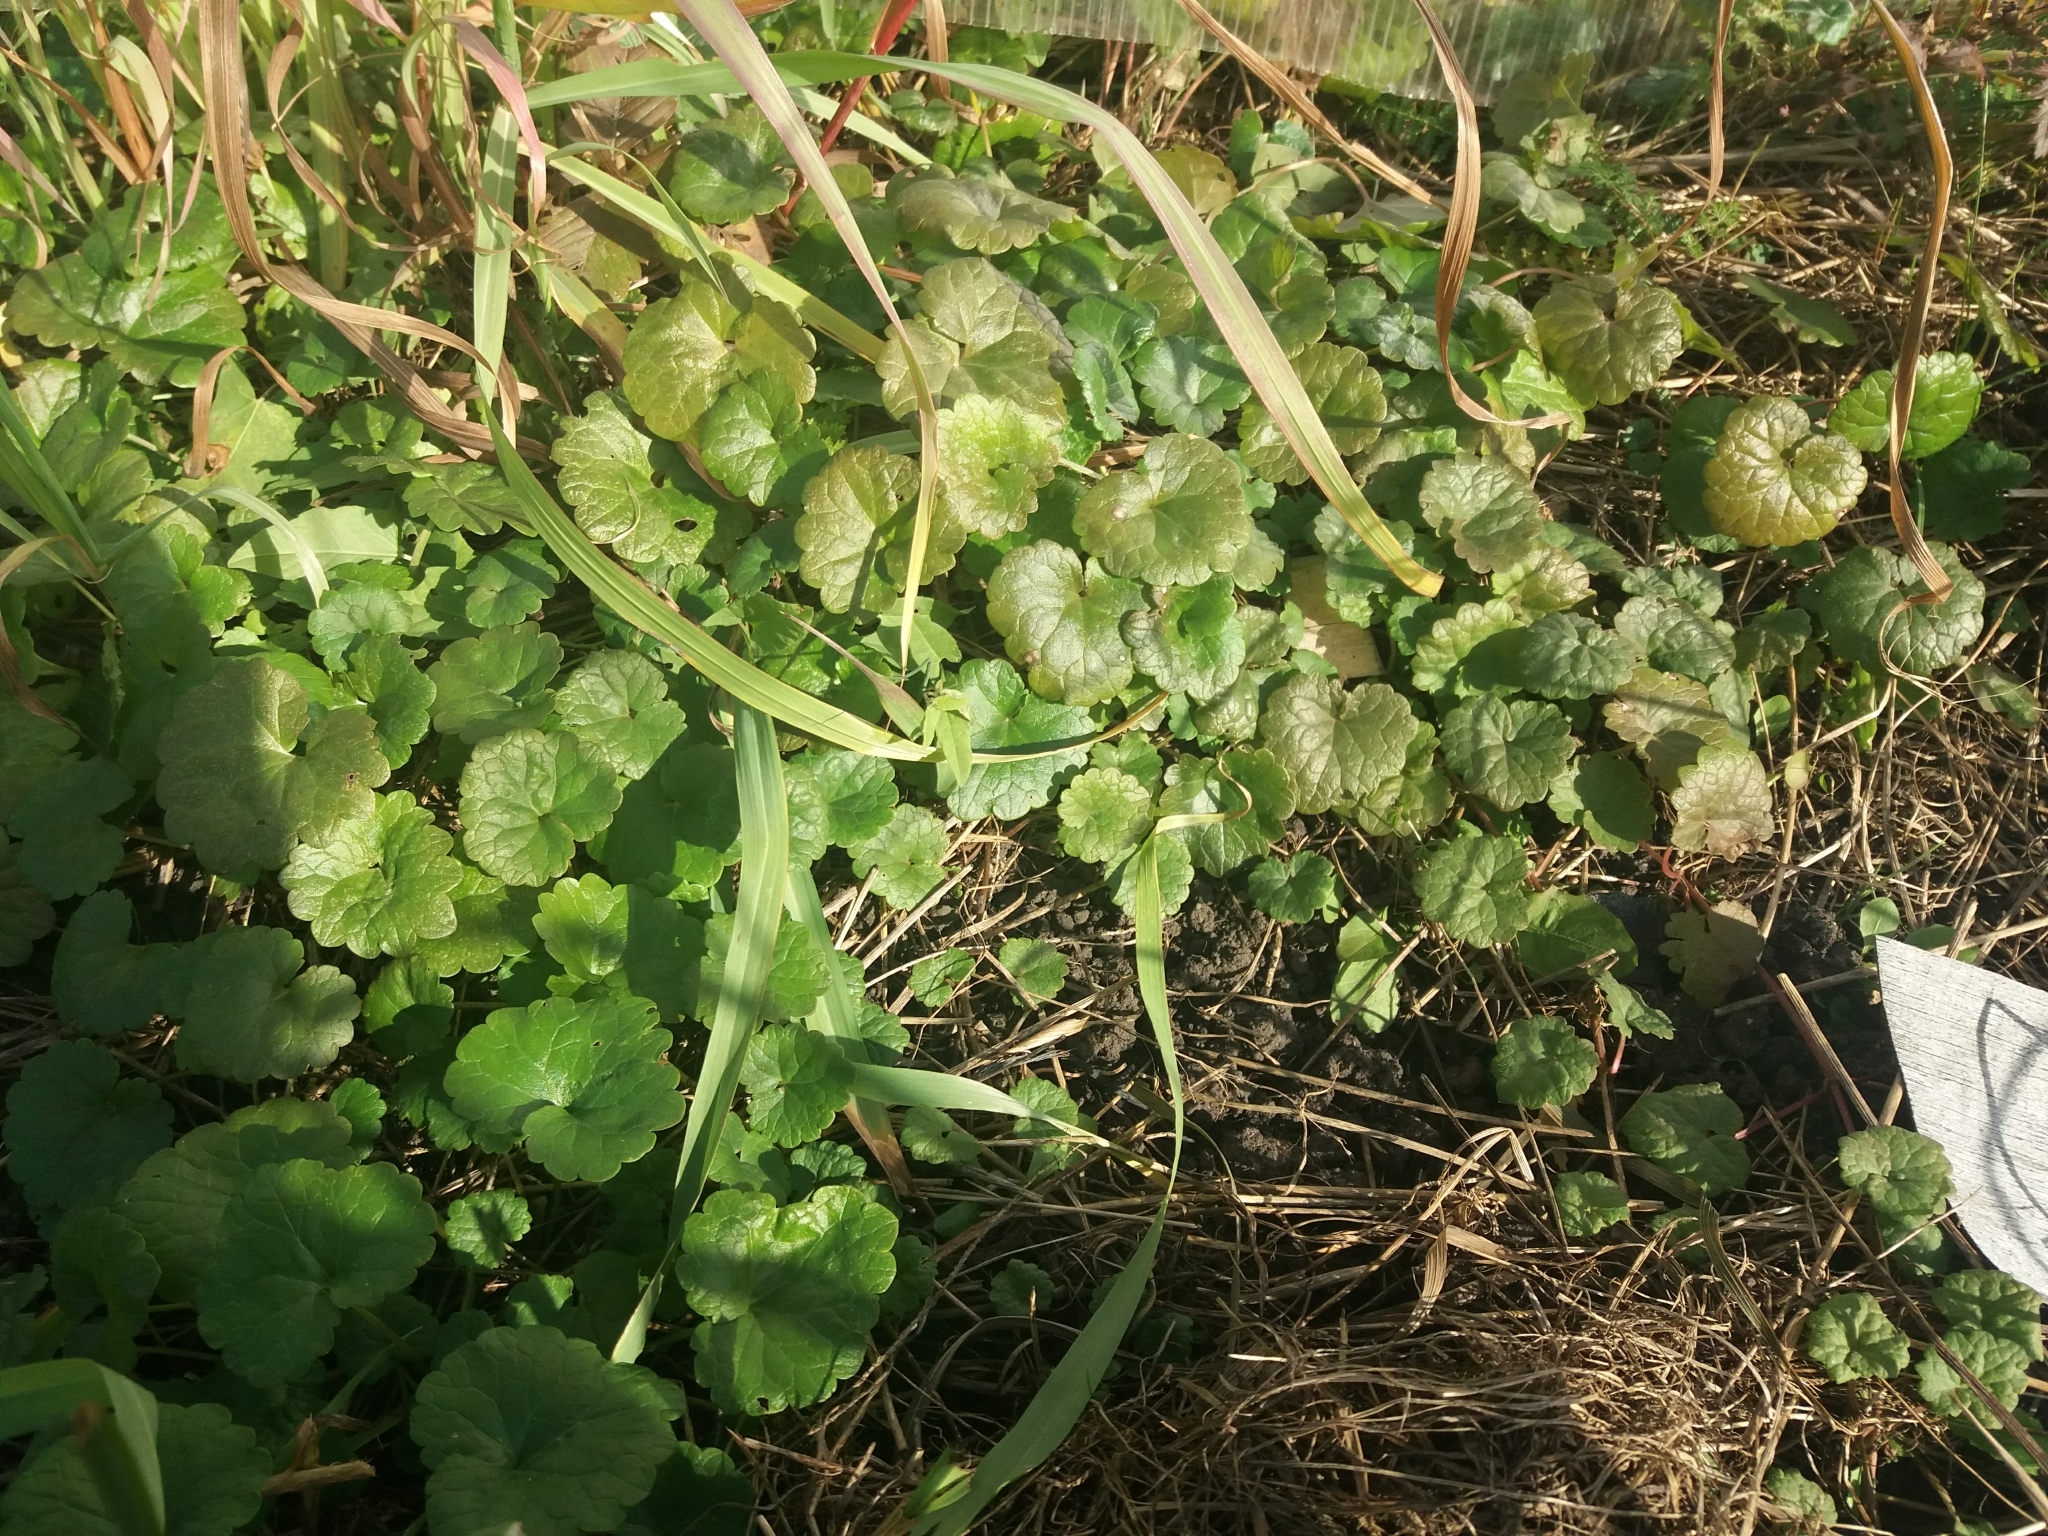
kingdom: Plantae
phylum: Tracheophyta
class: Magnoliopsida
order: Lamiales
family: Lamiaceae
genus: Glechoma
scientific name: Glechoma hederacea
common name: Ground ivy
